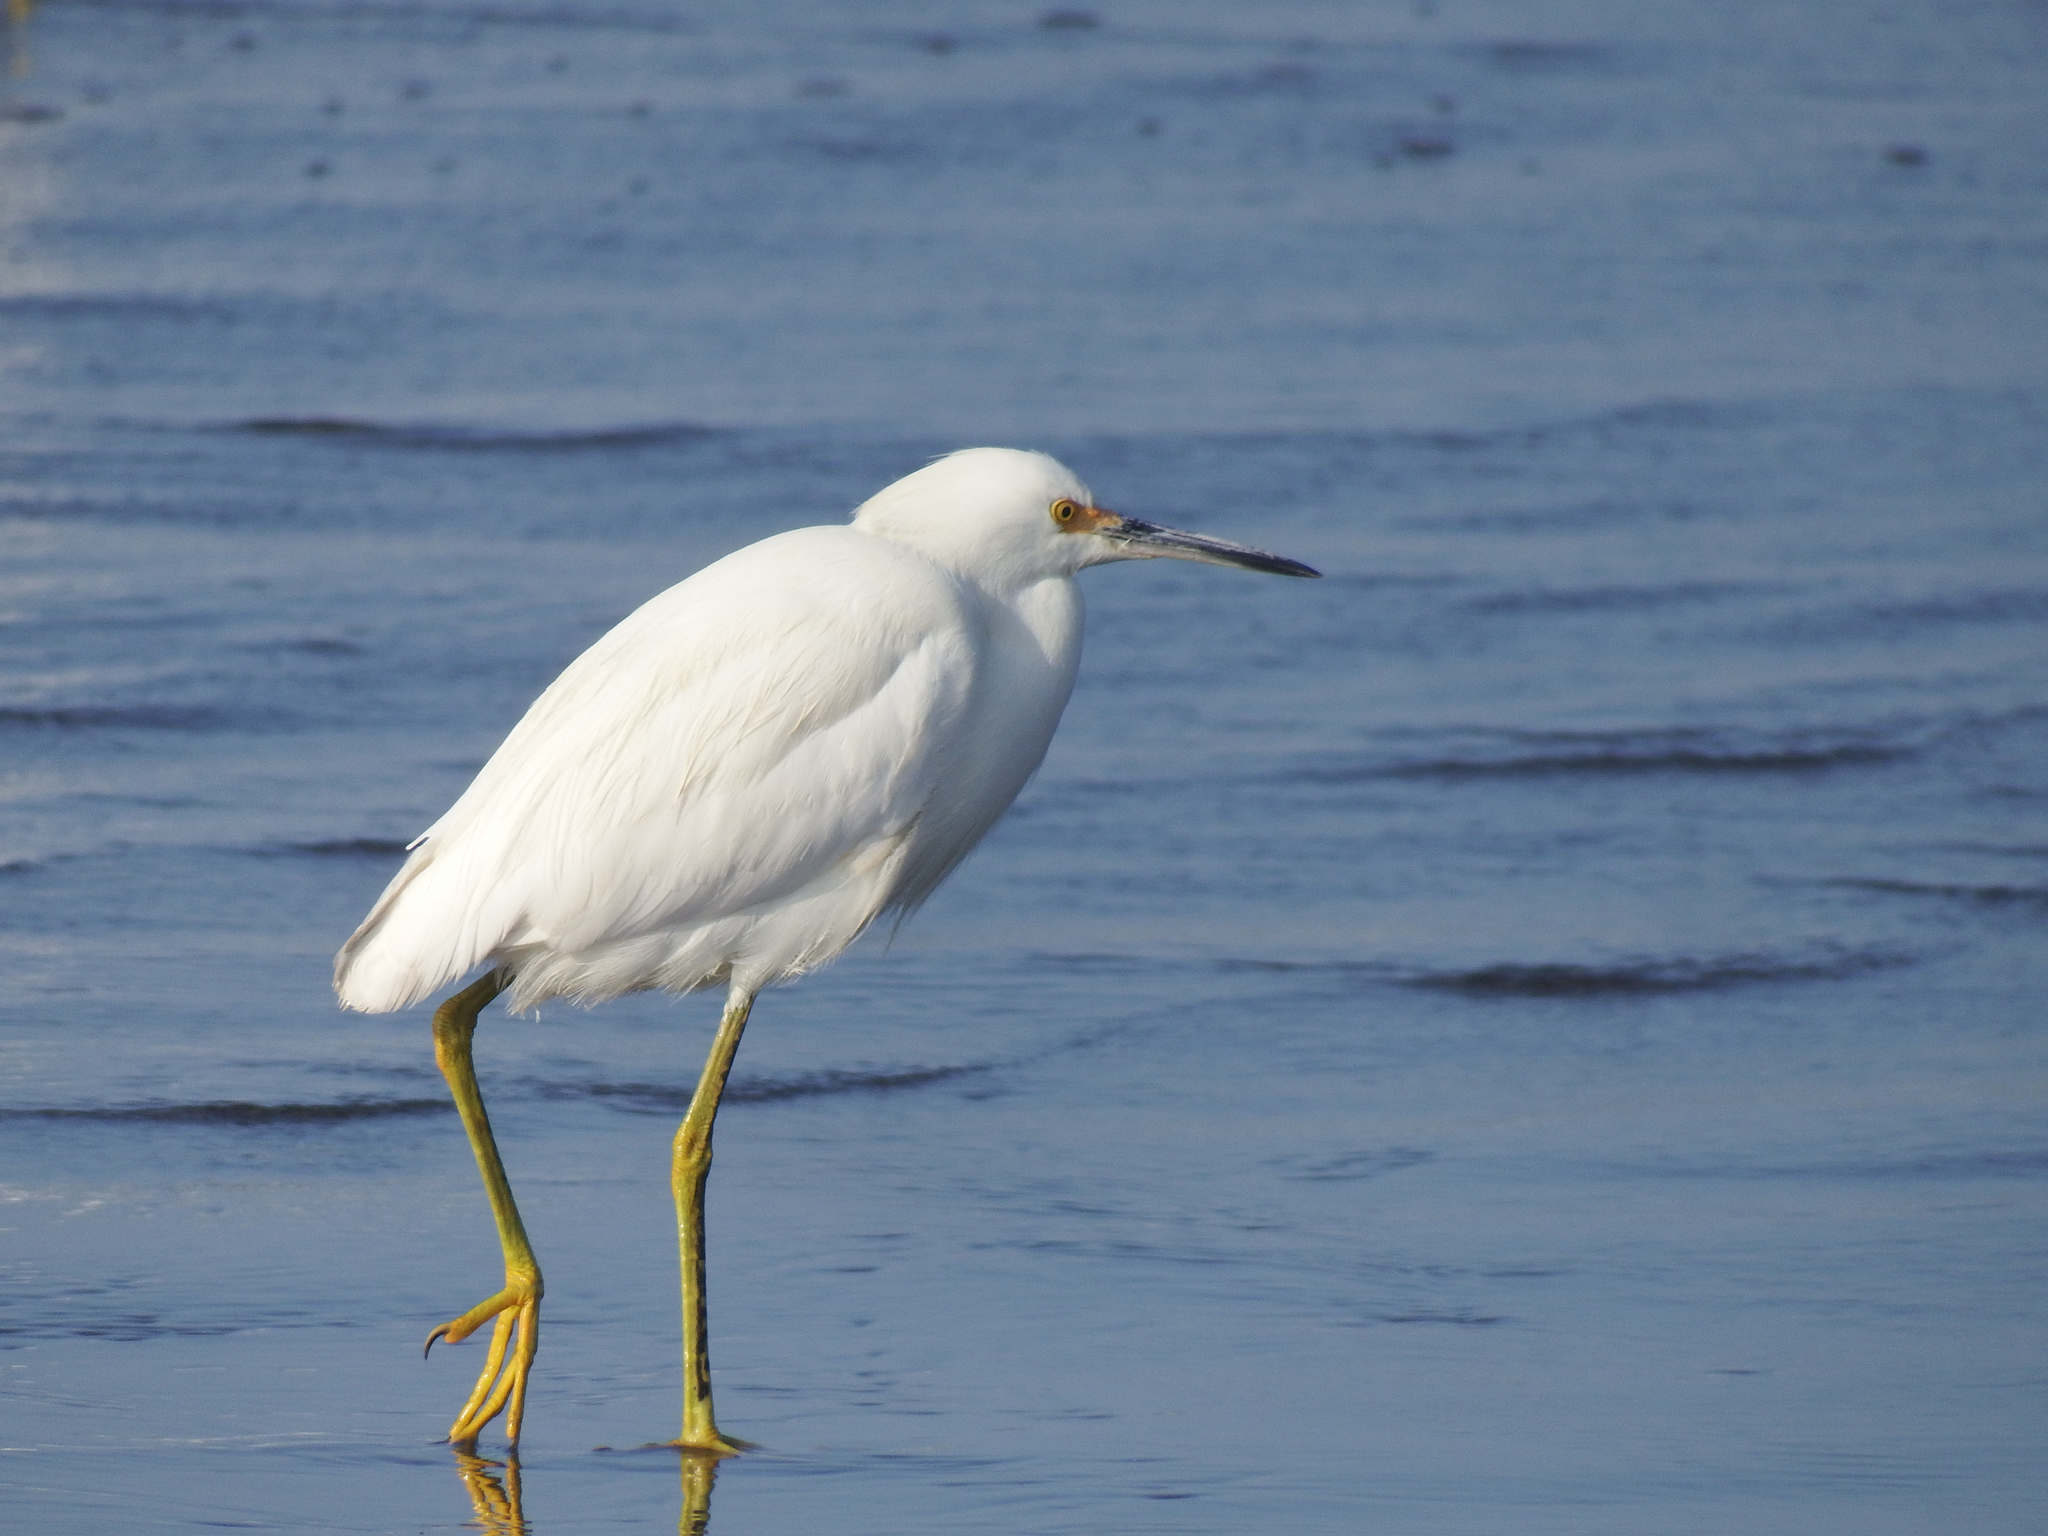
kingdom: Animalia
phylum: Chordata
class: Aves
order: Pelecaniformes
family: Ardeidae
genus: Egretta
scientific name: Egretta thula
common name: Snowy egret
